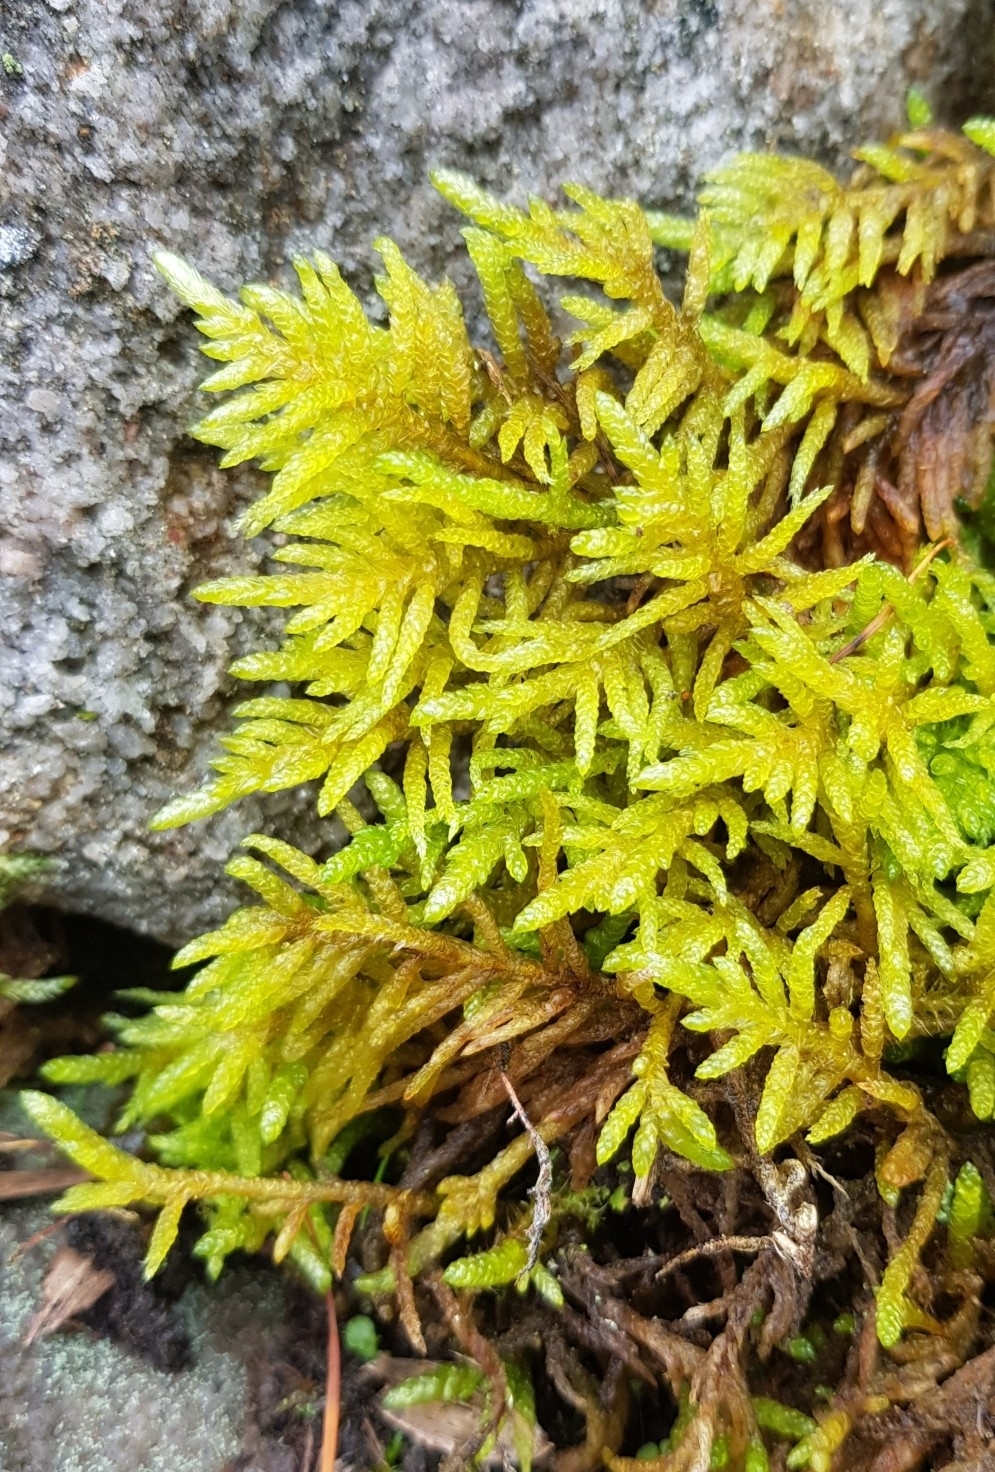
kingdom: Plantae
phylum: Bryophyta
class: Bryopsida
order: Hypnales
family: Brachytheciaceae
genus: Pseudoscleropodium
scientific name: Pseudoscleropodium purum
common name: Neat feather-moss
